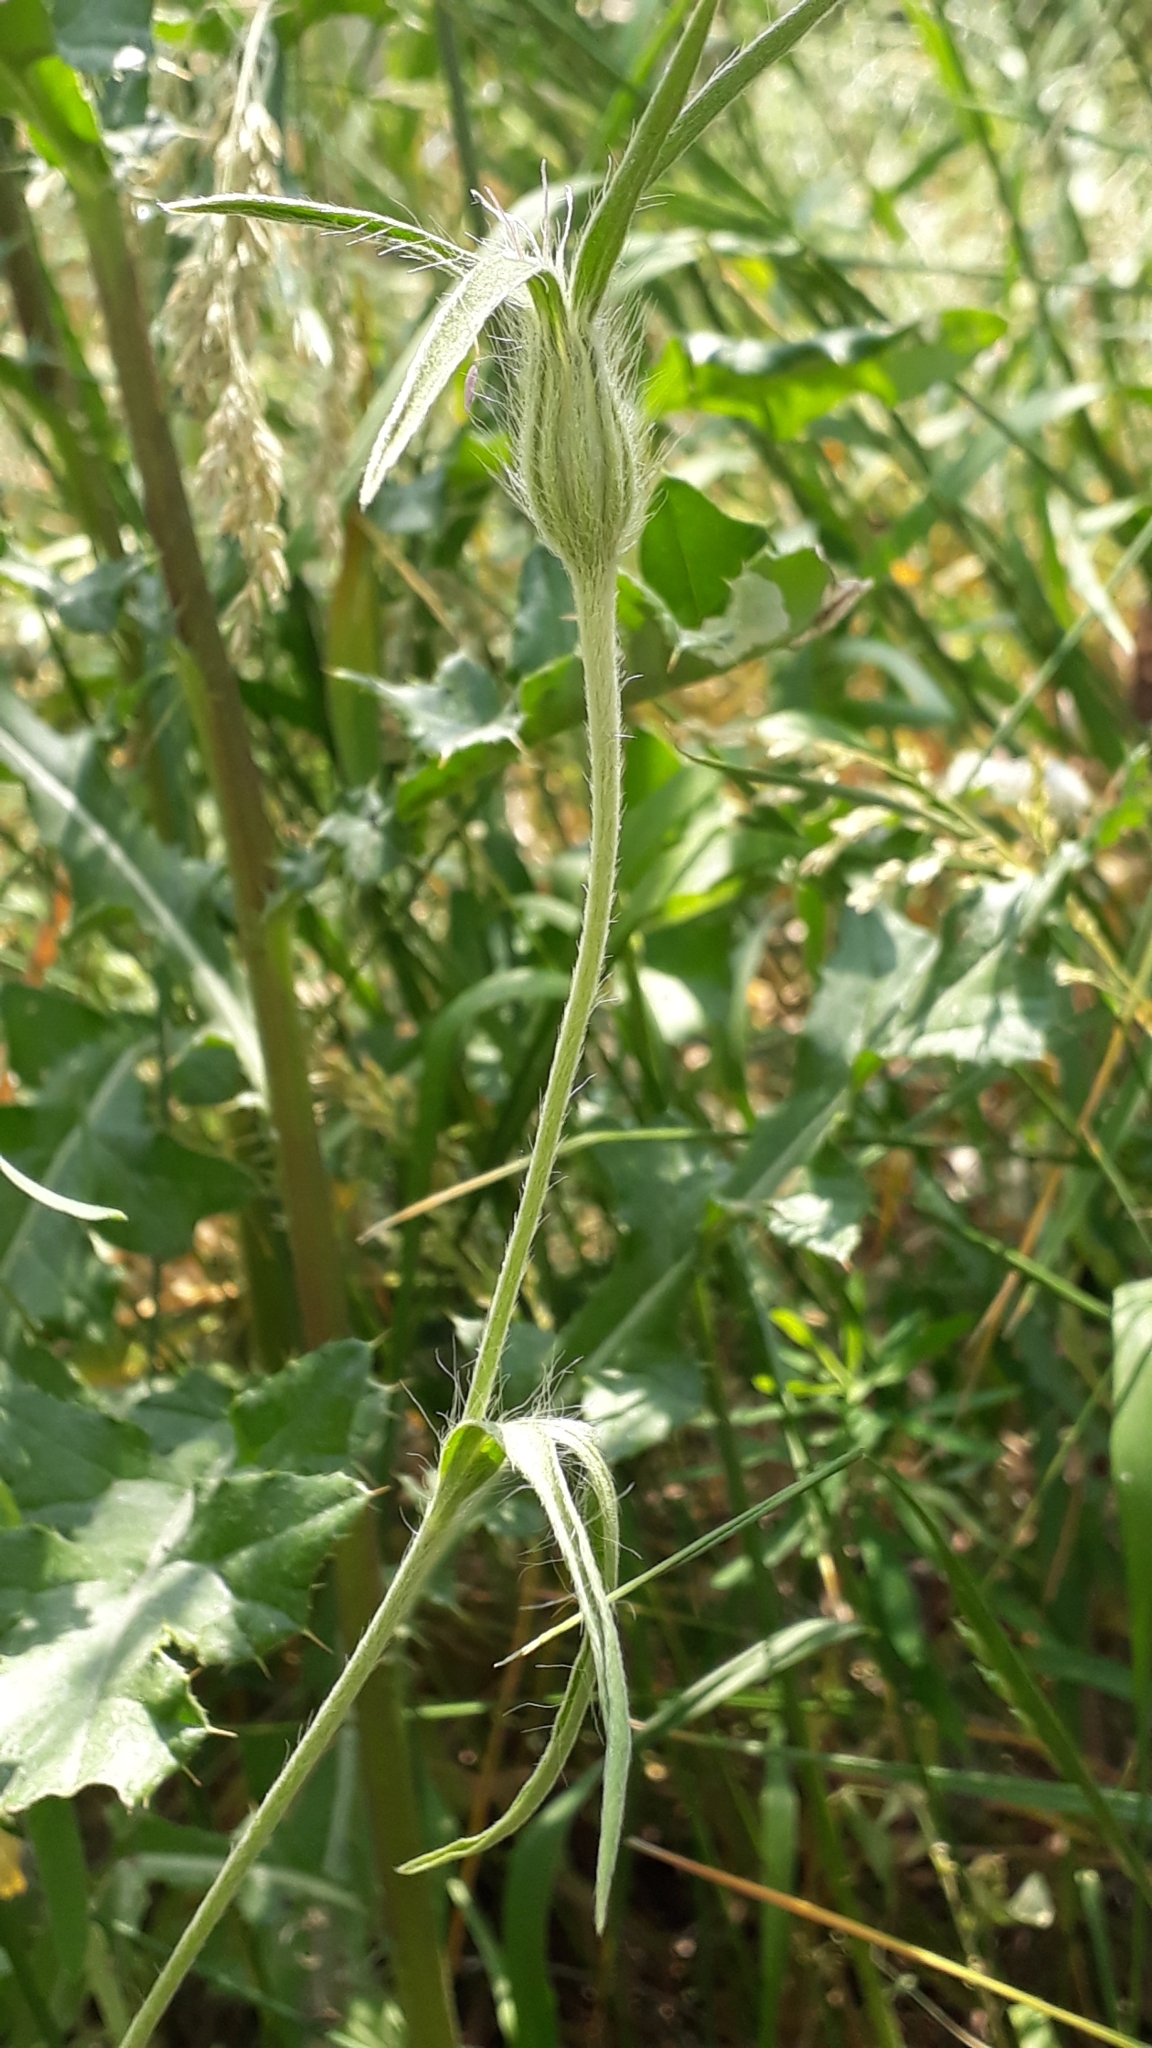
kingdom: Plantae
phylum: Tracheophyta
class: Magnoliopsida
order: Caryophyllales
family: Caryophyllaceae
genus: Agrostemma
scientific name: Agrostemma githago
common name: Common corncockle
